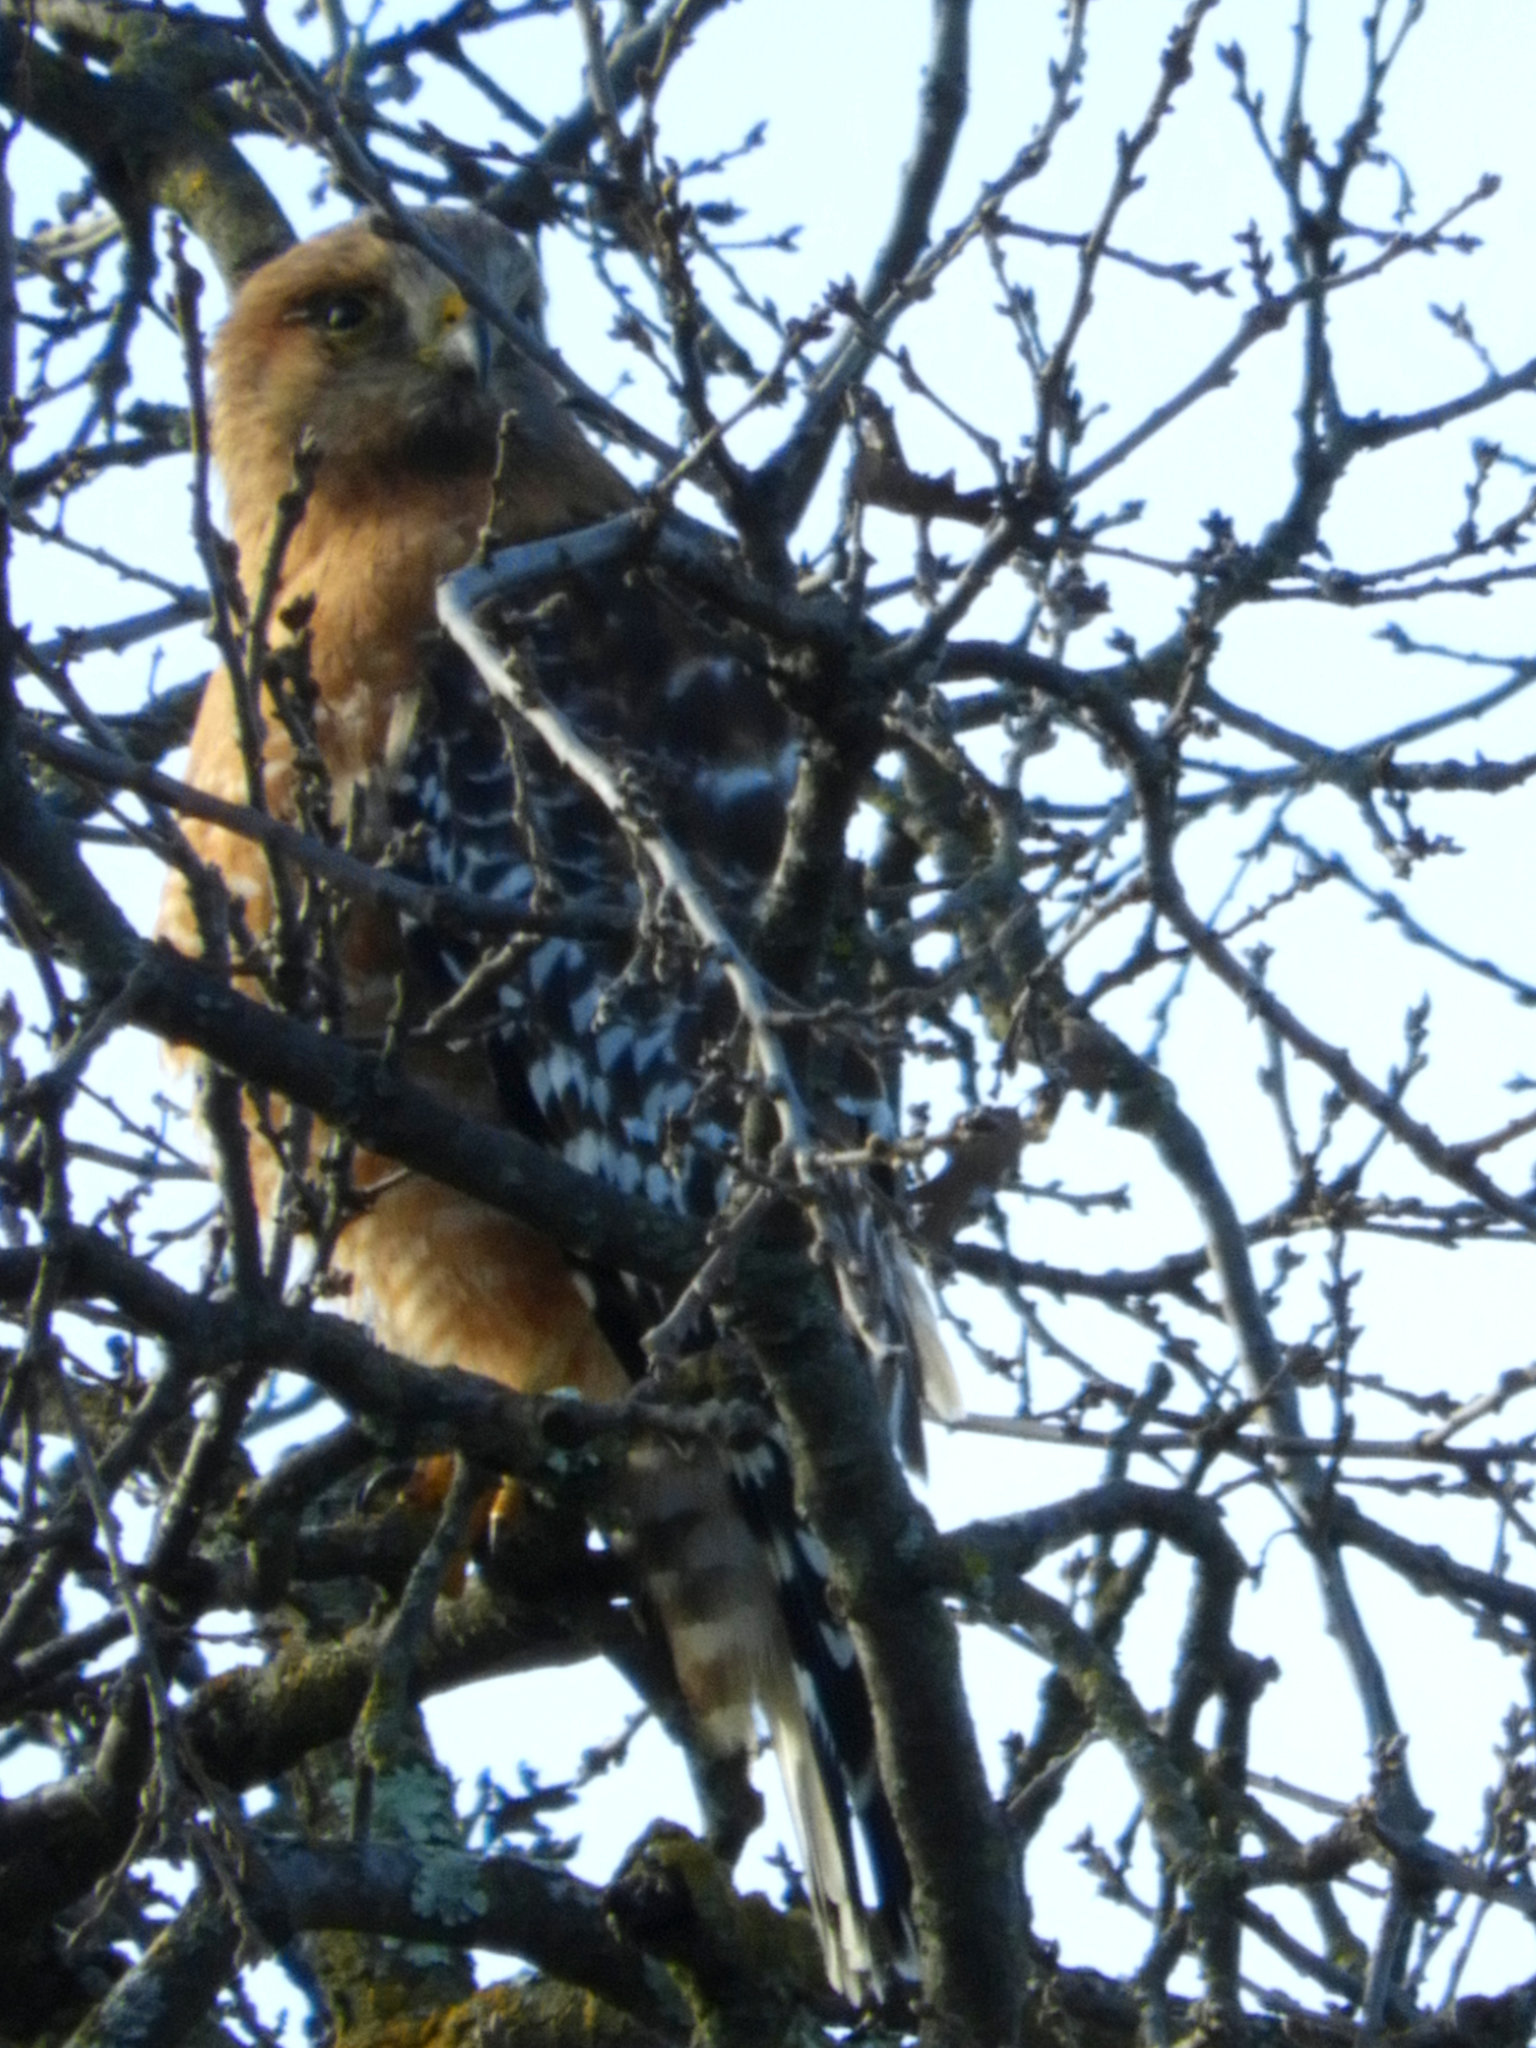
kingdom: Animalia
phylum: Chordata
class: Aves
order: Accipitriformes
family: Accipitridae
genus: Buteo
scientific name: Buteo lineatus
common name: Red-shouldered hawk
